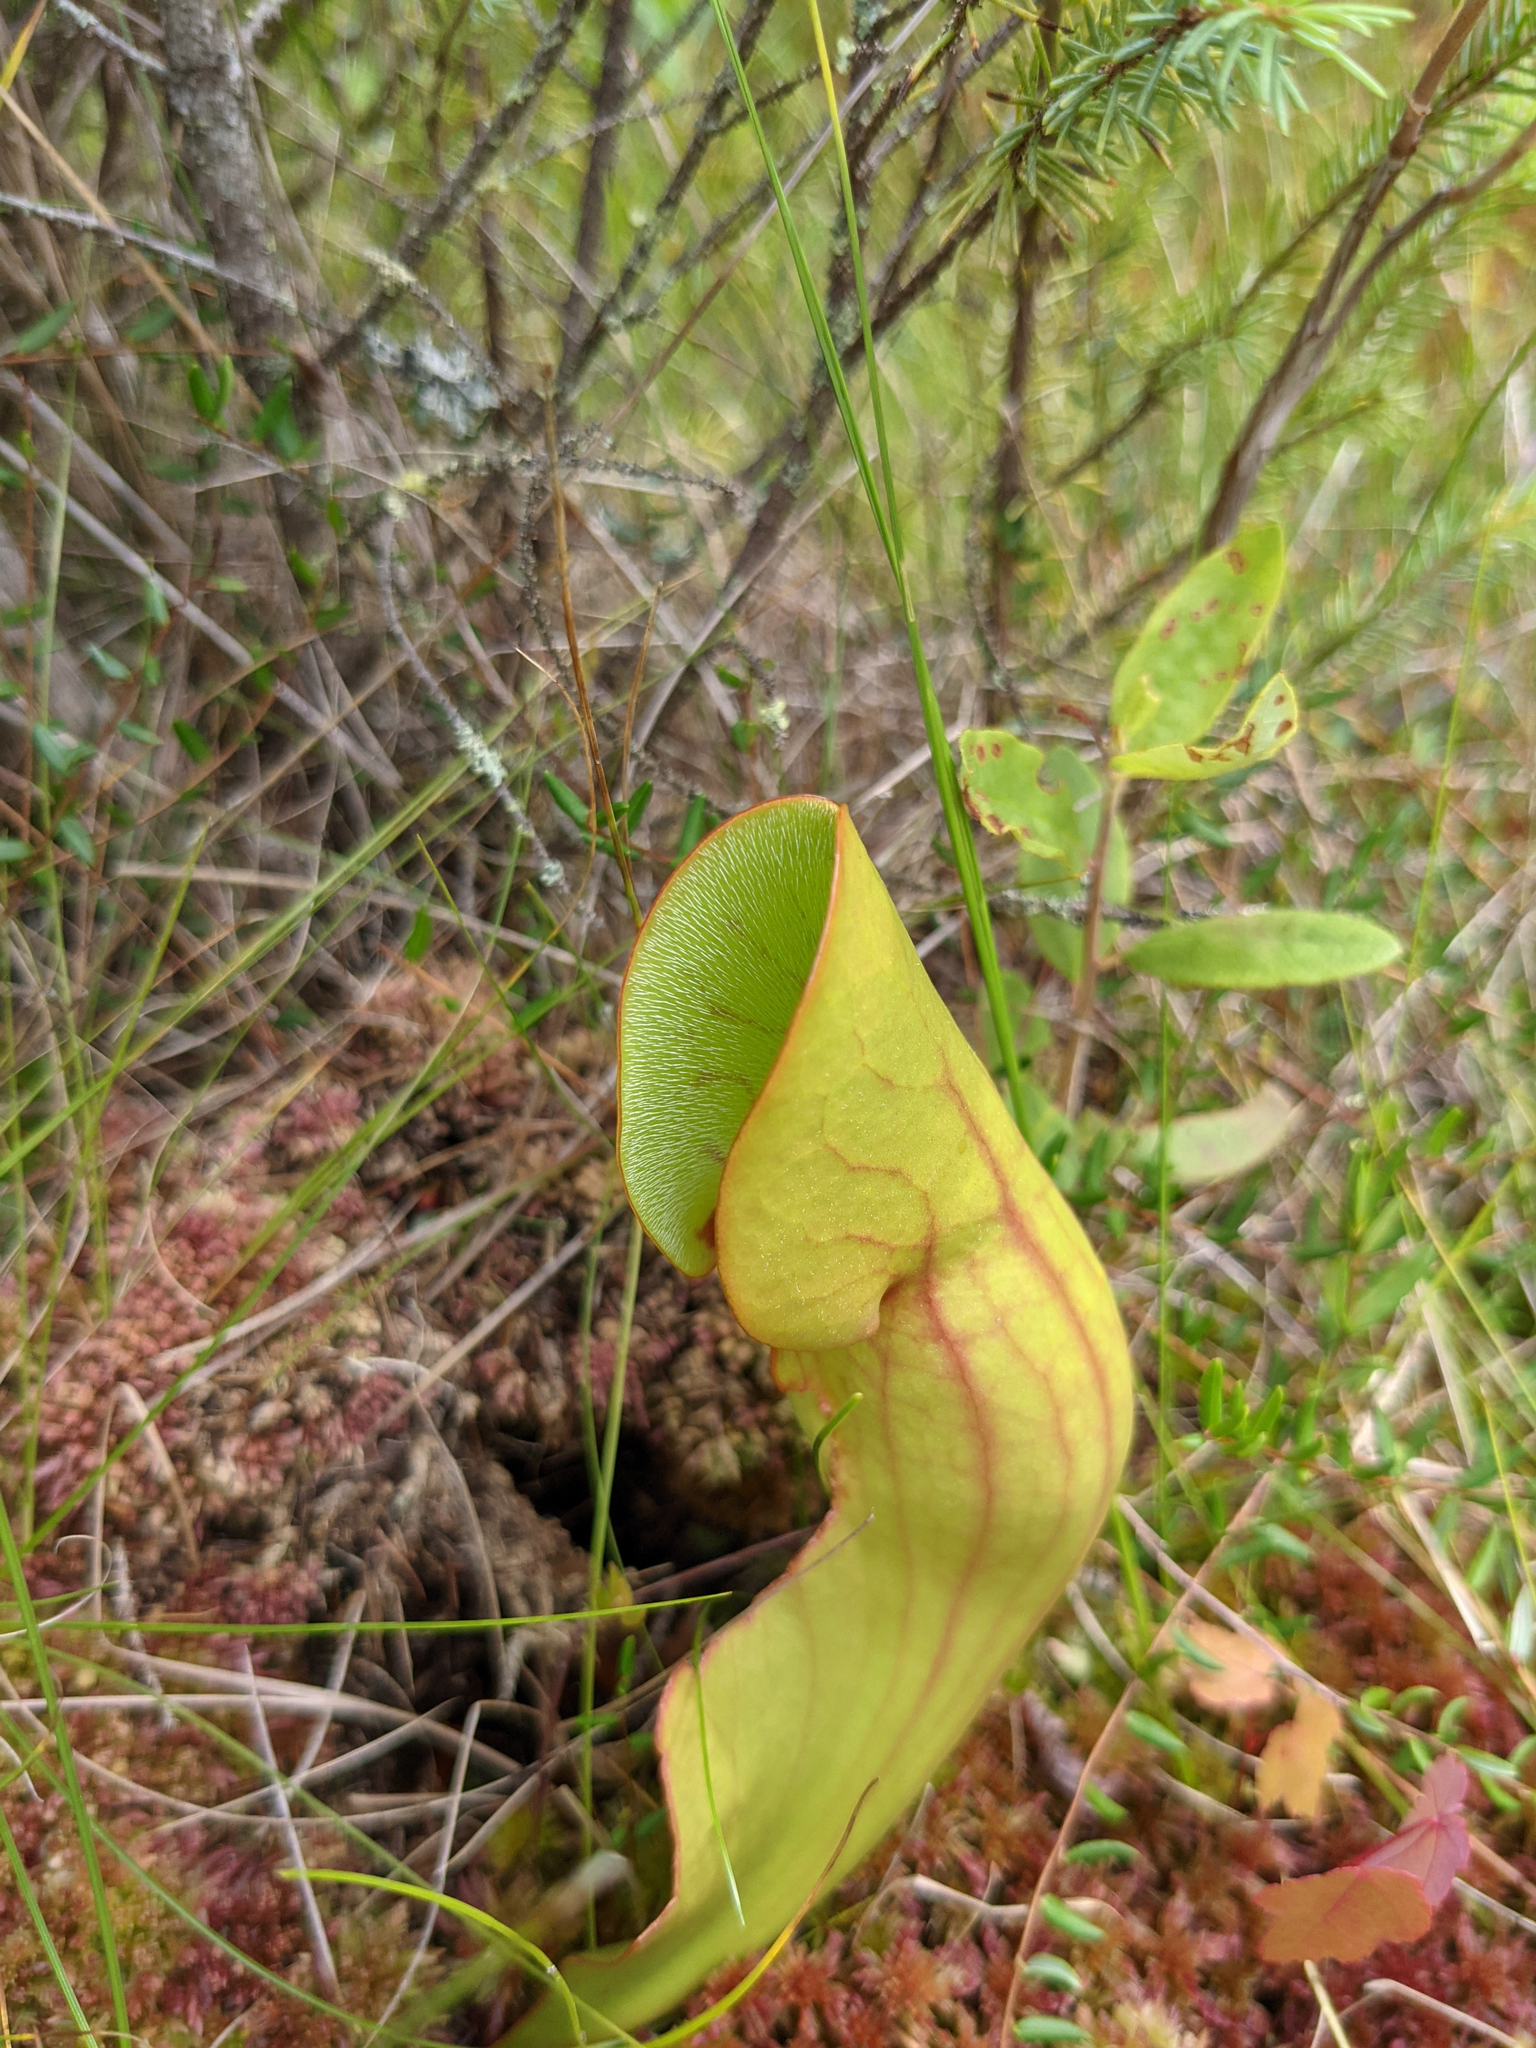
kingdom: Plantae
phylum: Tracheophyta
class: Magnoliopsida
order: Ericales
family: Sarraceniaceae
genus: Sarracenia
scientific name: Sarracenia purpurea
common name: Pitcherplant
